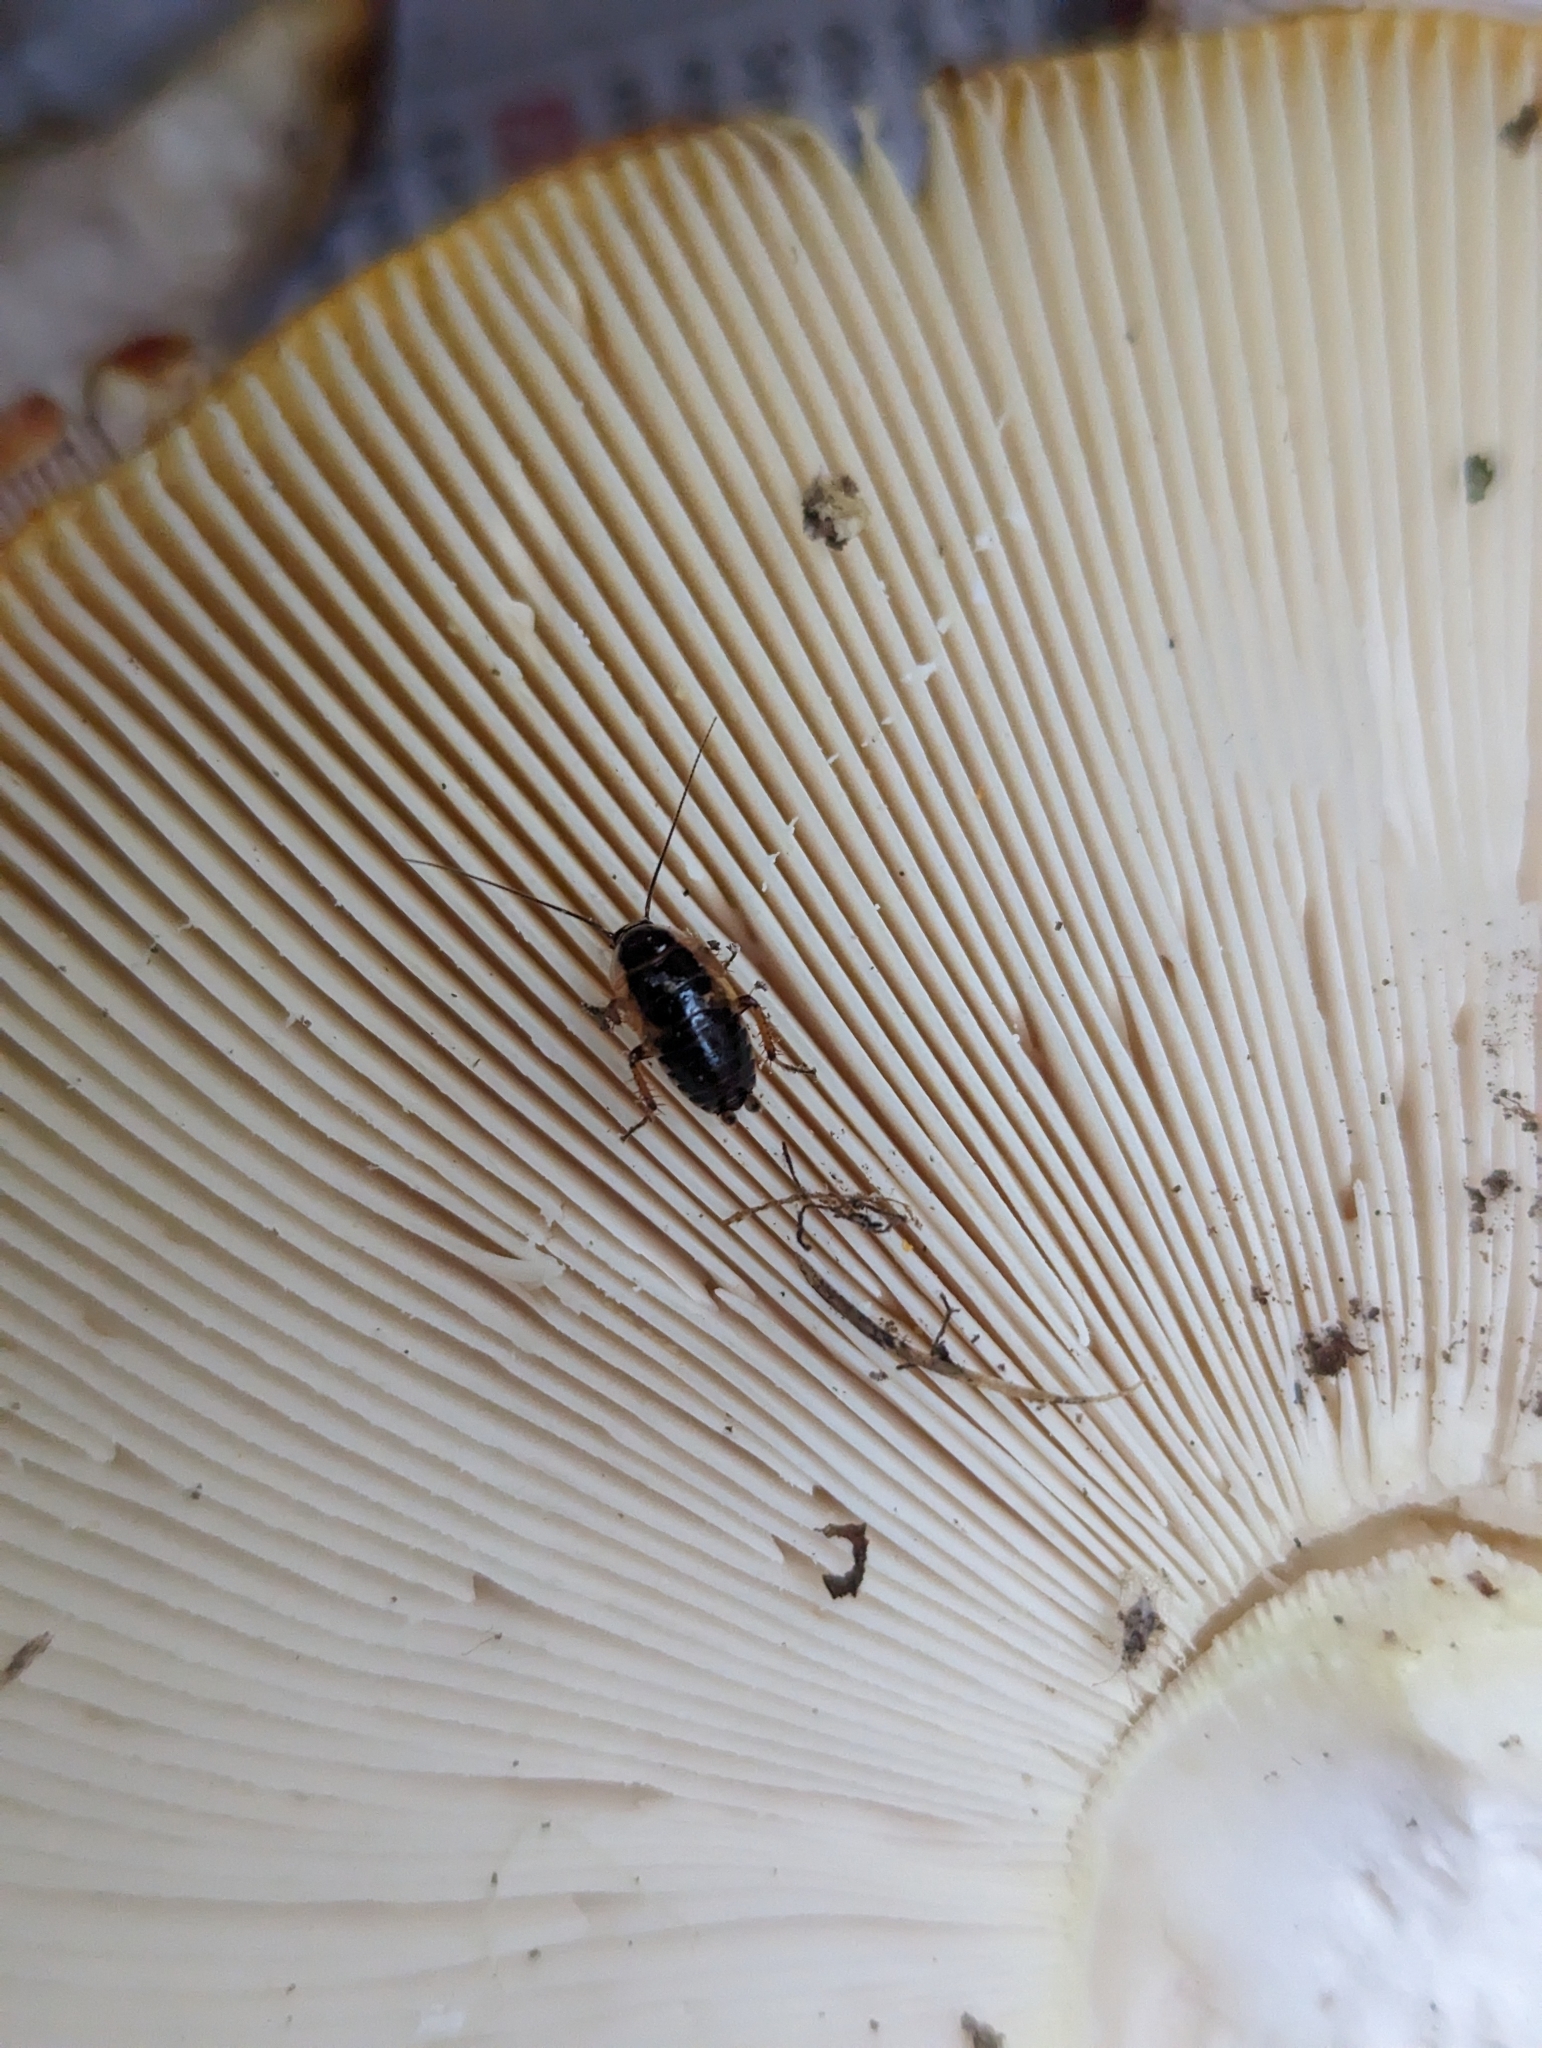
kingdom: Animalia
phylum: Arthropoda
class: Insecta
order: Blattodea
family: Ectobiidae
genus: Ectobius
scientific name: Ectobius sylvestris
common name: Forest cockroach
